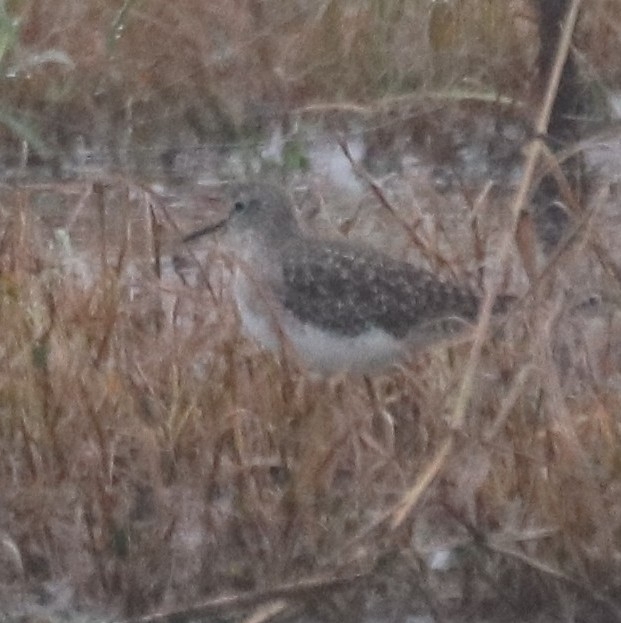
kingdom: Animalia
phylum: Chordata
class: Aves
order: Charadriiformes
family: Scolopacidae
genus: Tringa
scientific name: Tringa glareola
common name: Wood sandpiper
